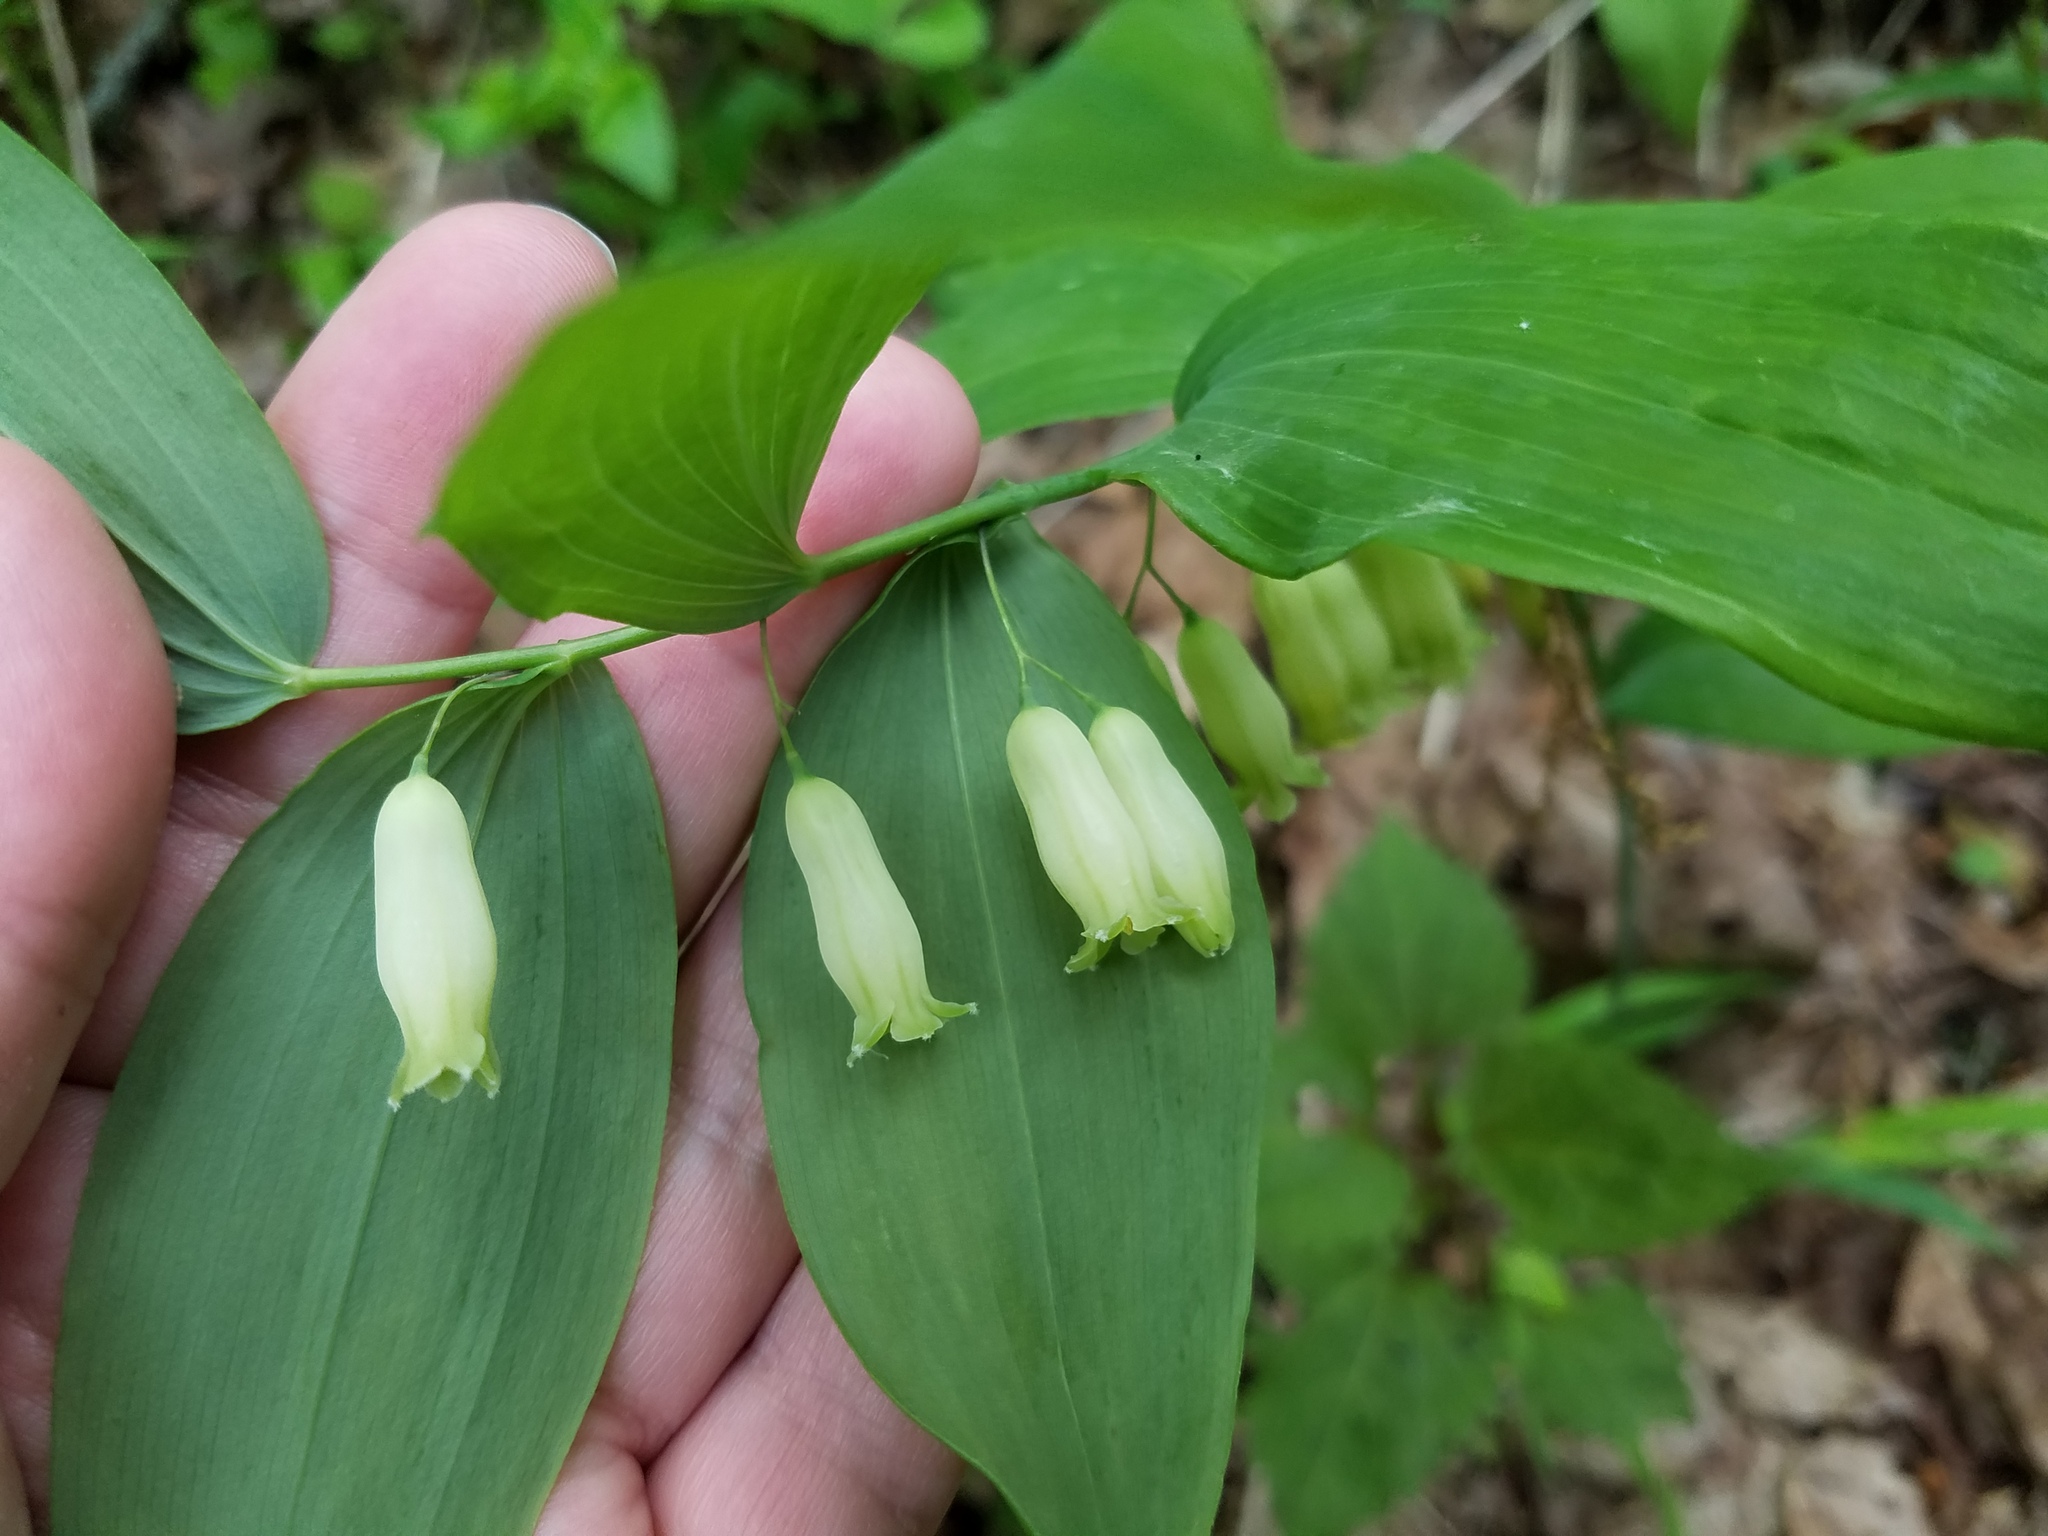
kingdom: Plantae
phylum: Tracheophyta
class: Liliopsida
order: Asparagales
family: Asparagaceae
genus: Polygonatum
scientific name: Polygonatum biflorum
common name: American solomon's-seal
